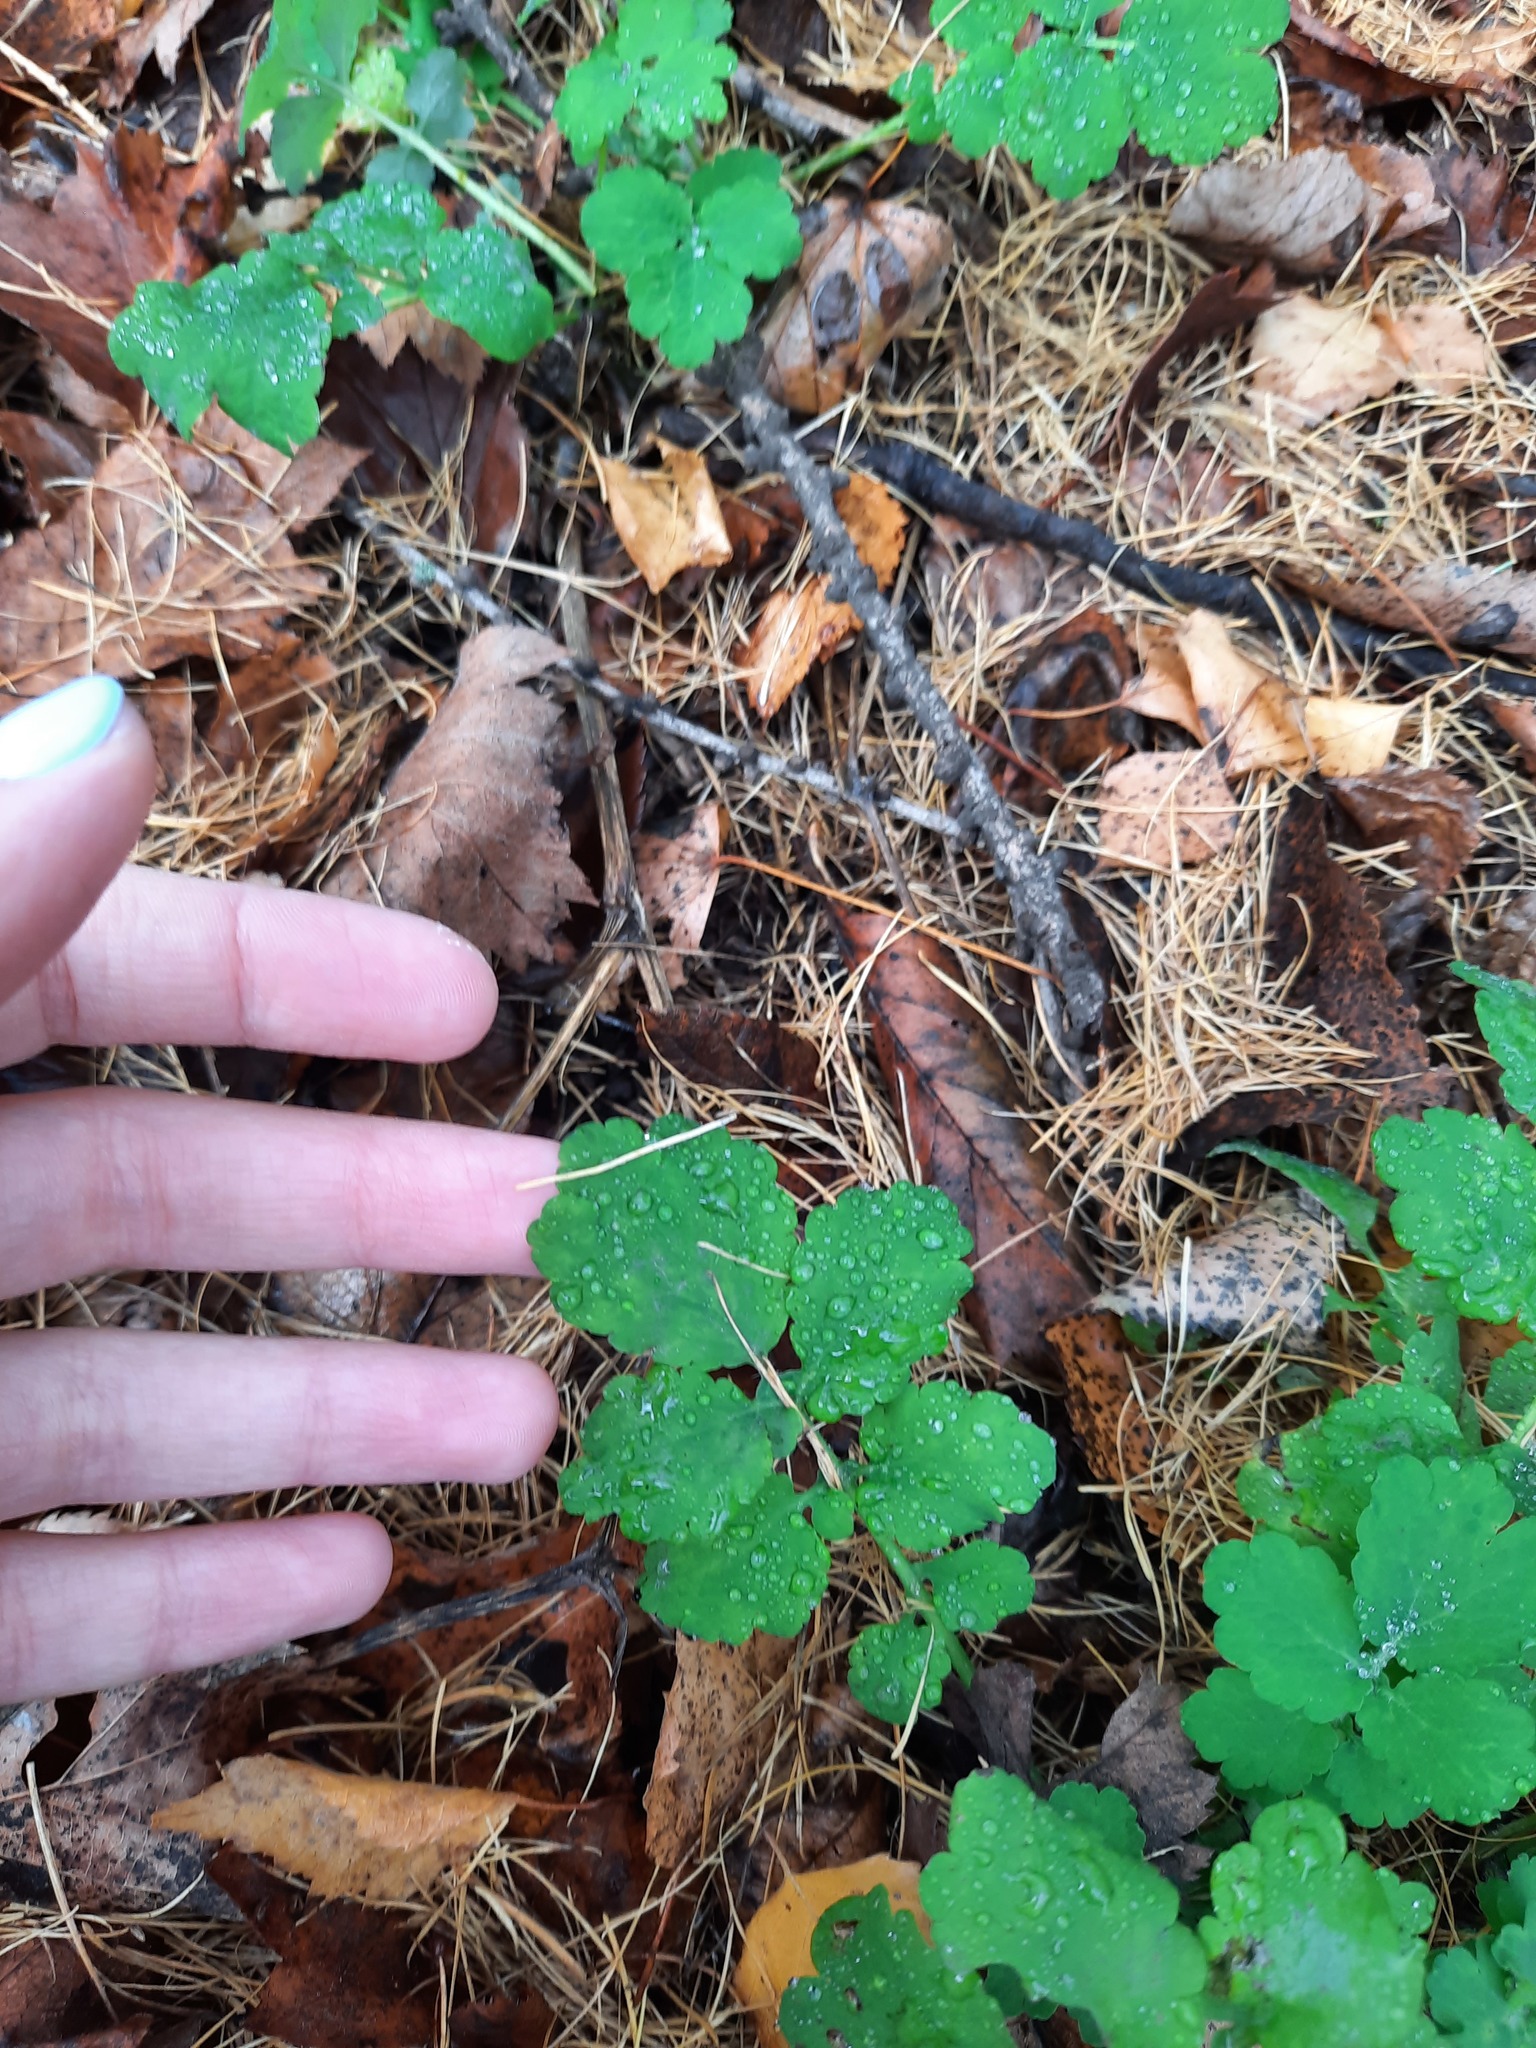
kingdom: Plantae
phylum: Tracheophyta
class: Magnoliopsida
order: Ranunculales
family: Papaveraceae
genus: Chelidonium
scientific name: Chelidonium majus
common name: Greater celandine
